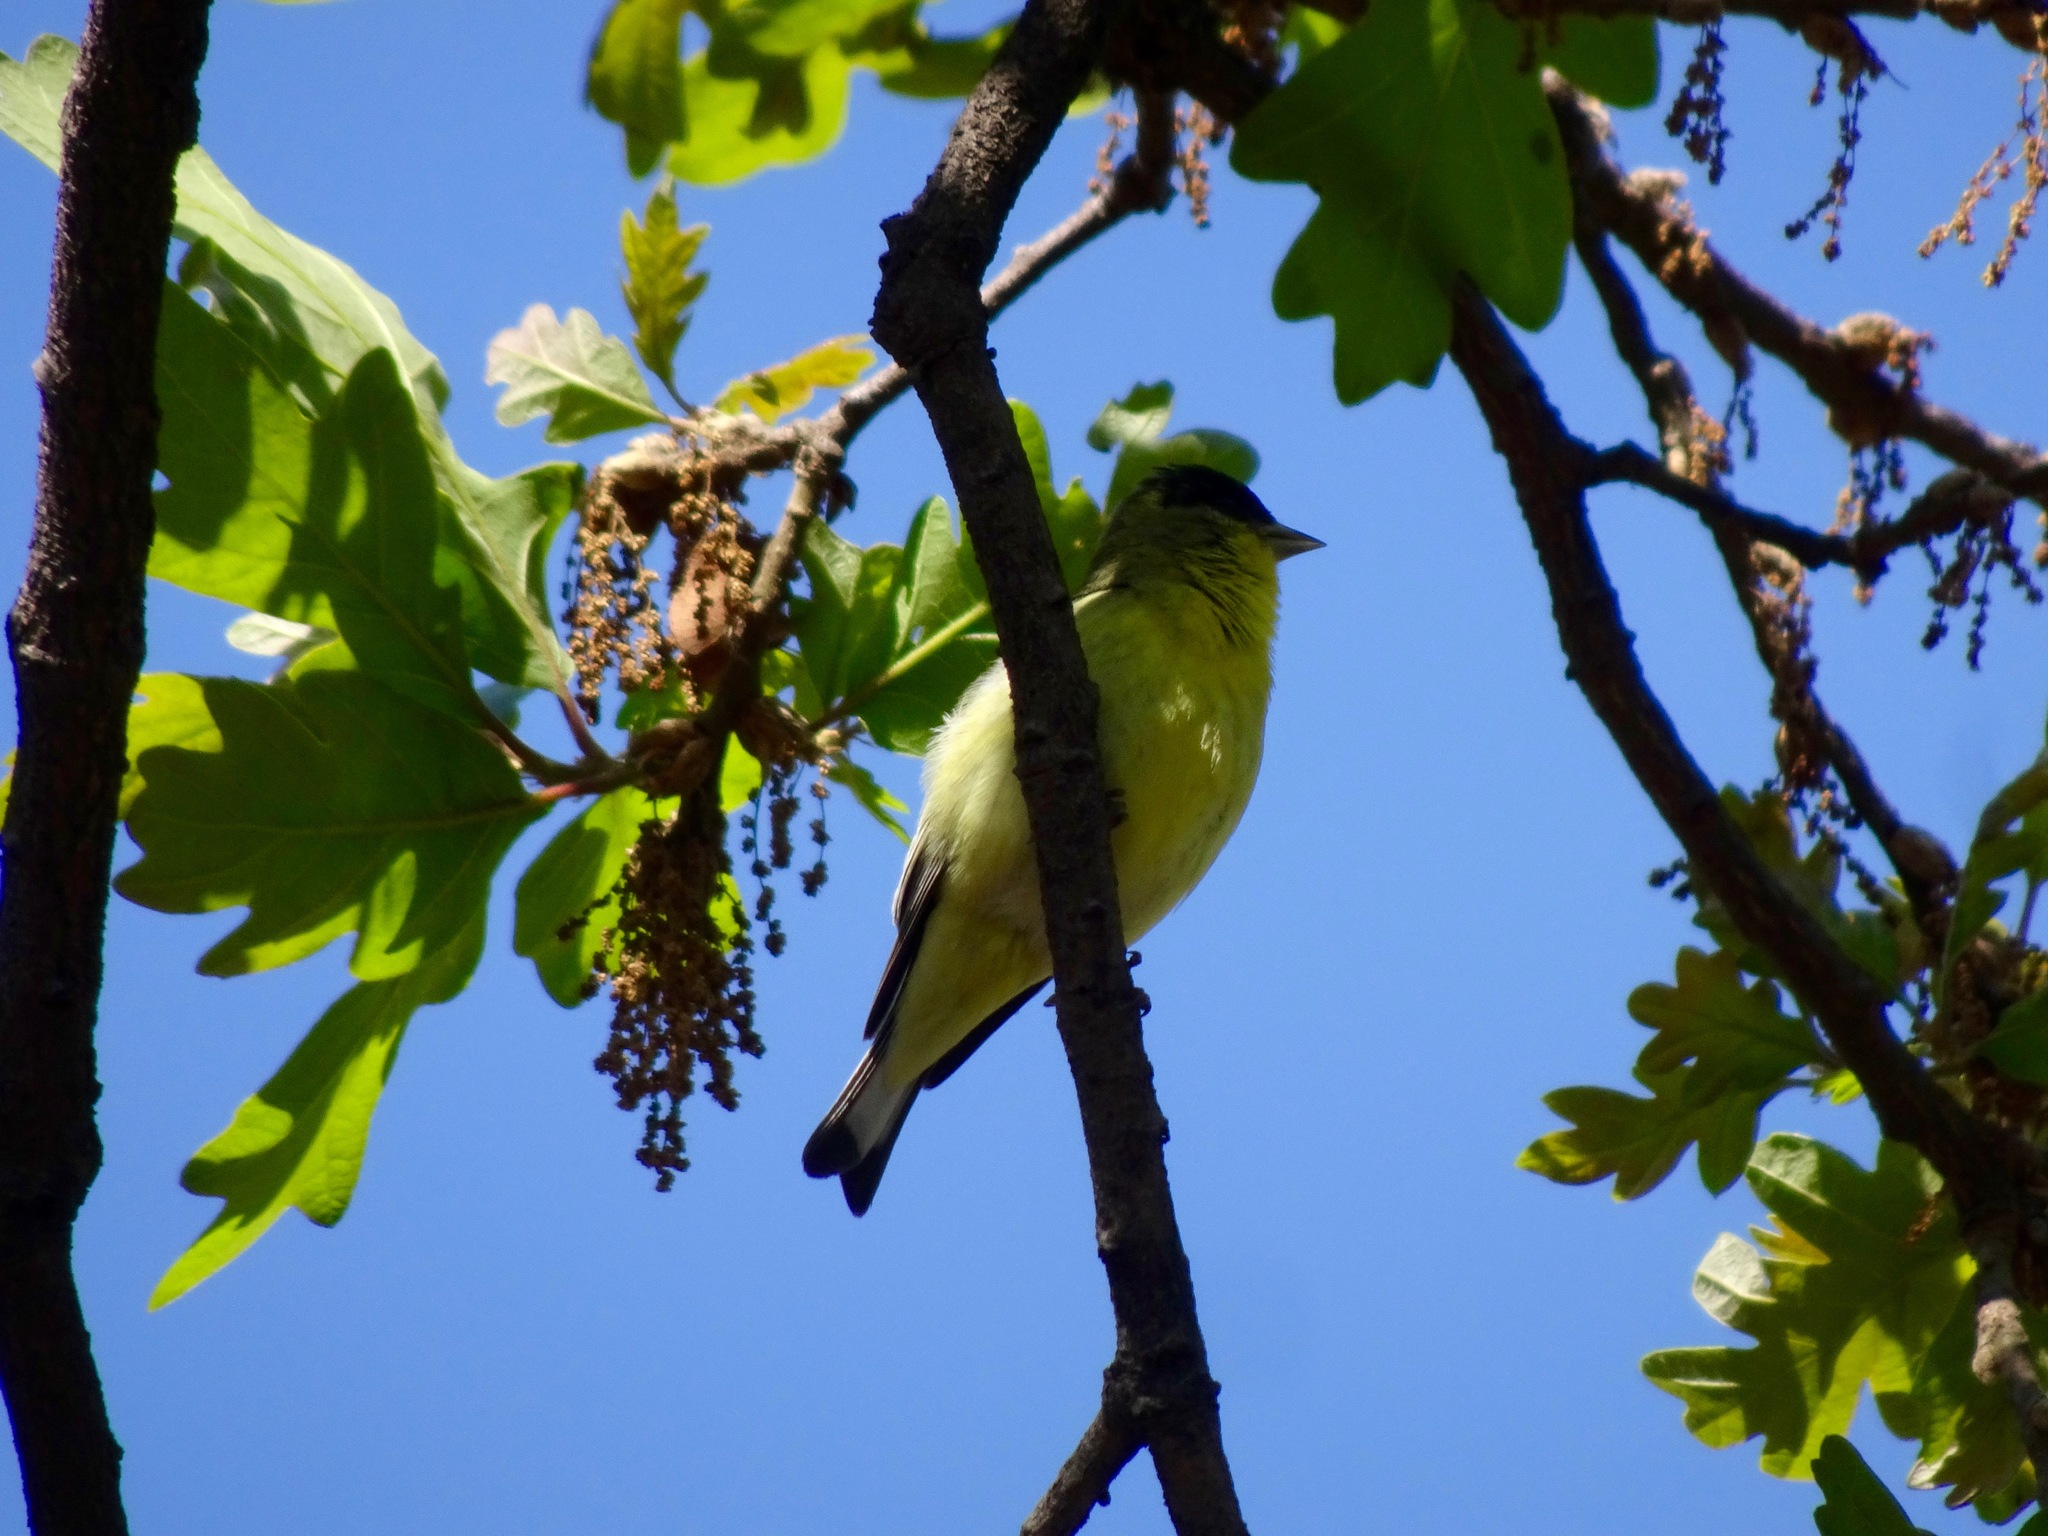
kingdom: Animalia
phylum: Chordata
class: Aves
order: Passeriformes
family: Fringillidae
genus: Spinus
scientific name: Spinus psaltria
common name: Lesser goldfinch
